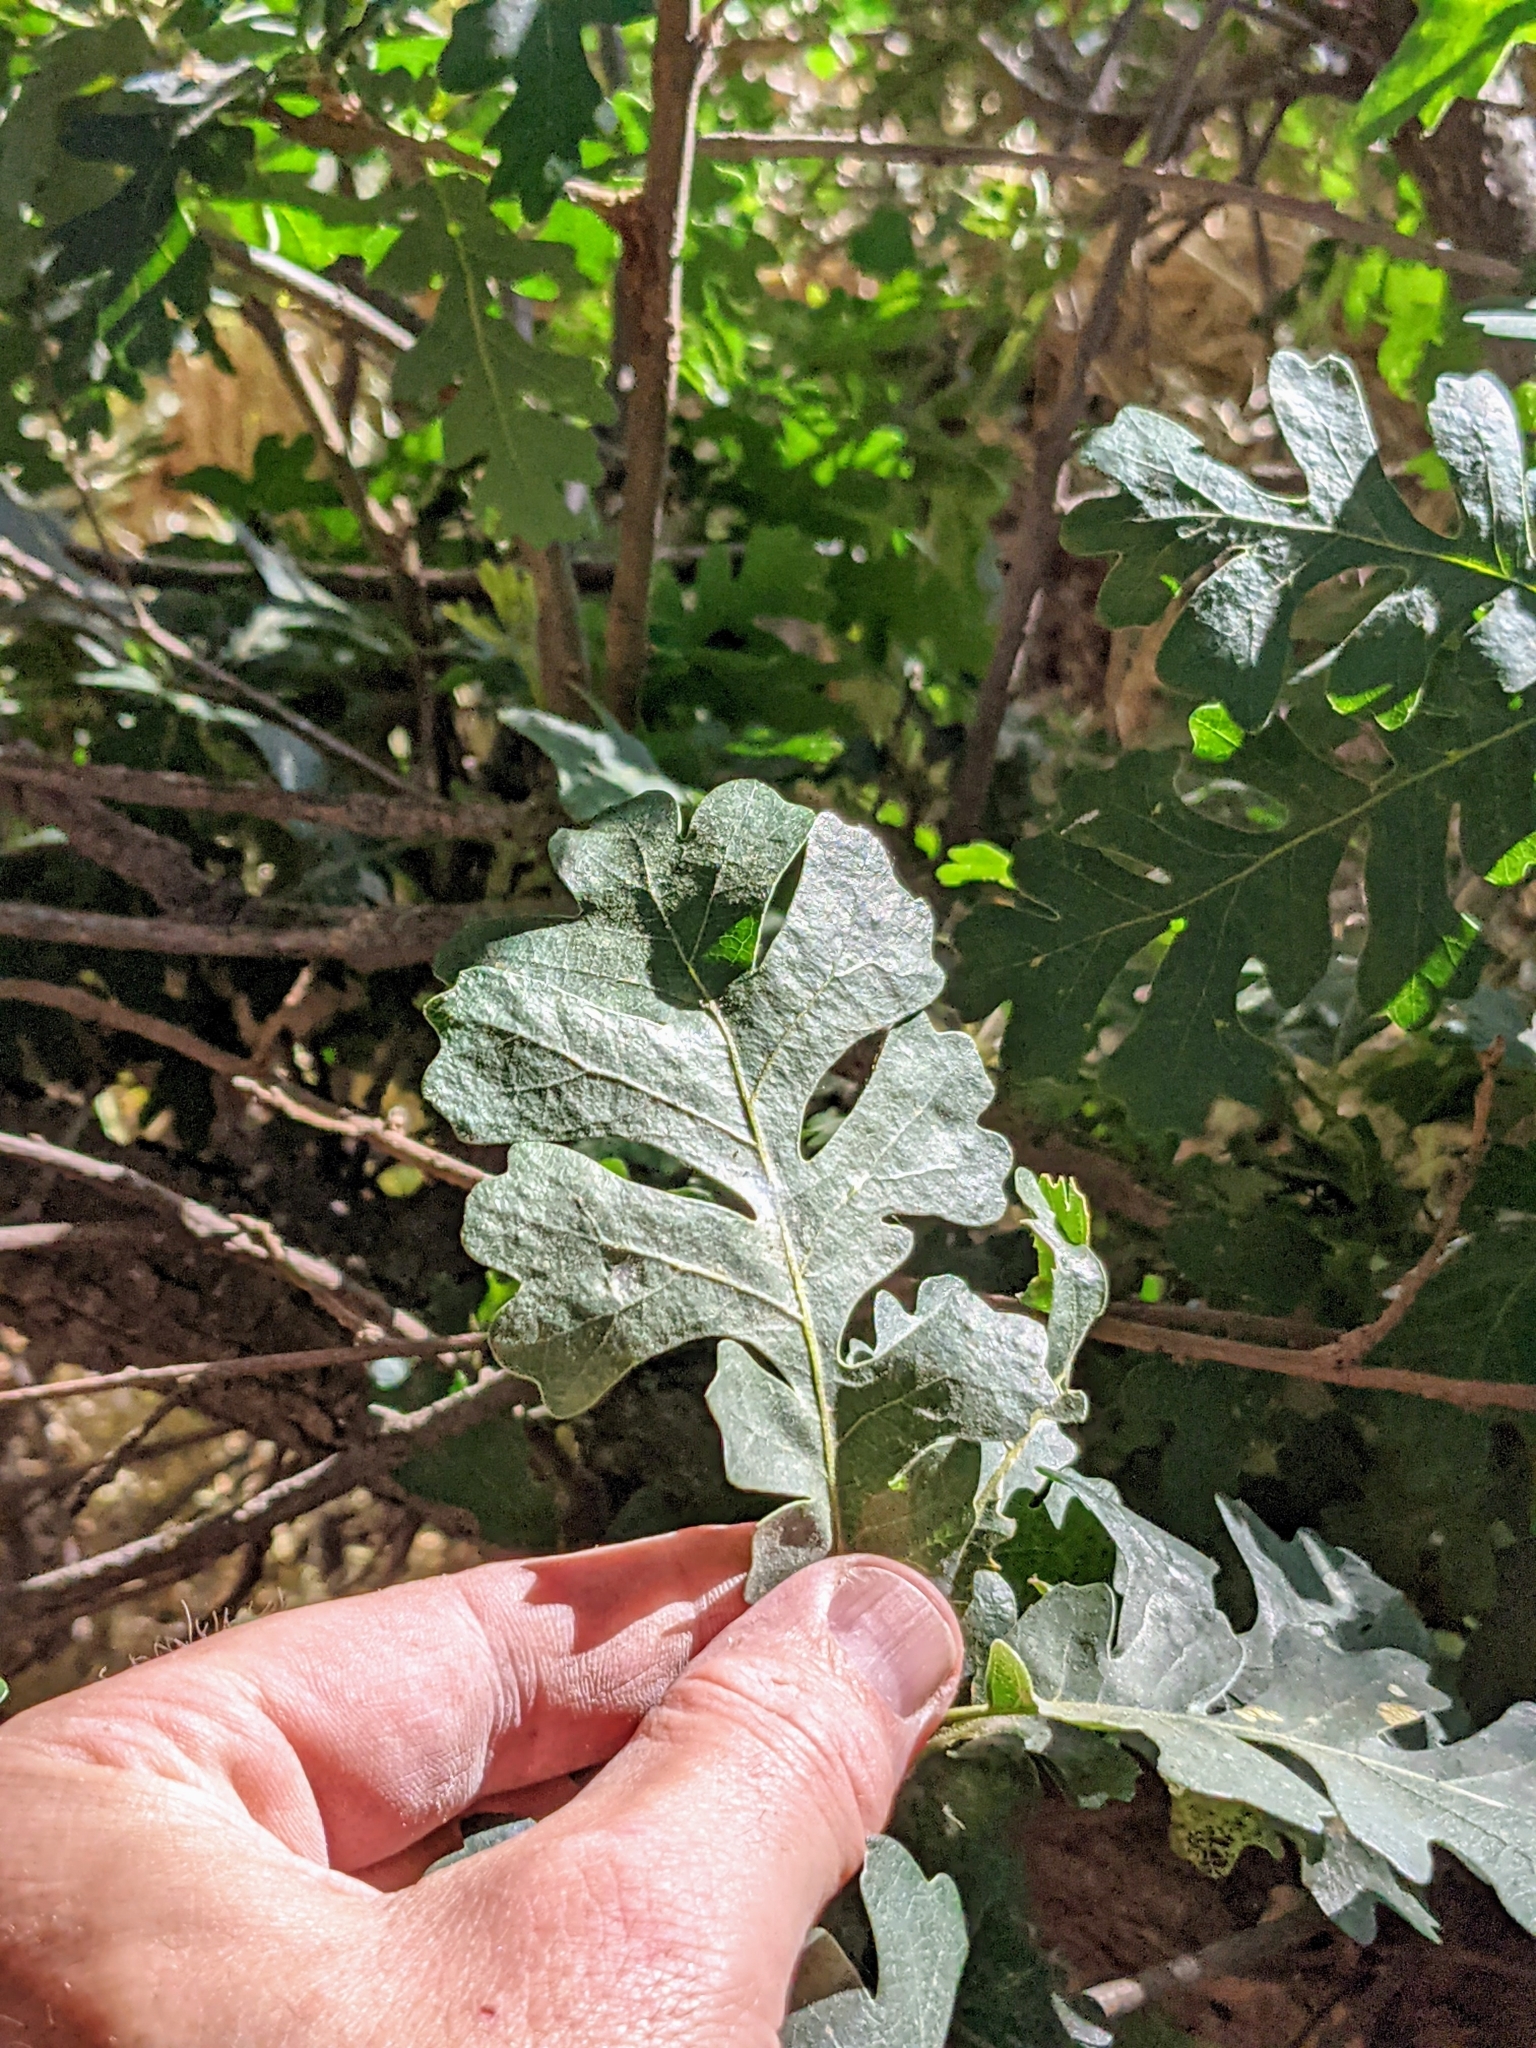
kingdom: Plantae
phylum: Tracheophyta
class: Magnoliopsida
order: Fagales
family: Fagaceae
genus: Quercus
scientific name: Quercus lobata
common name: Valley oak
